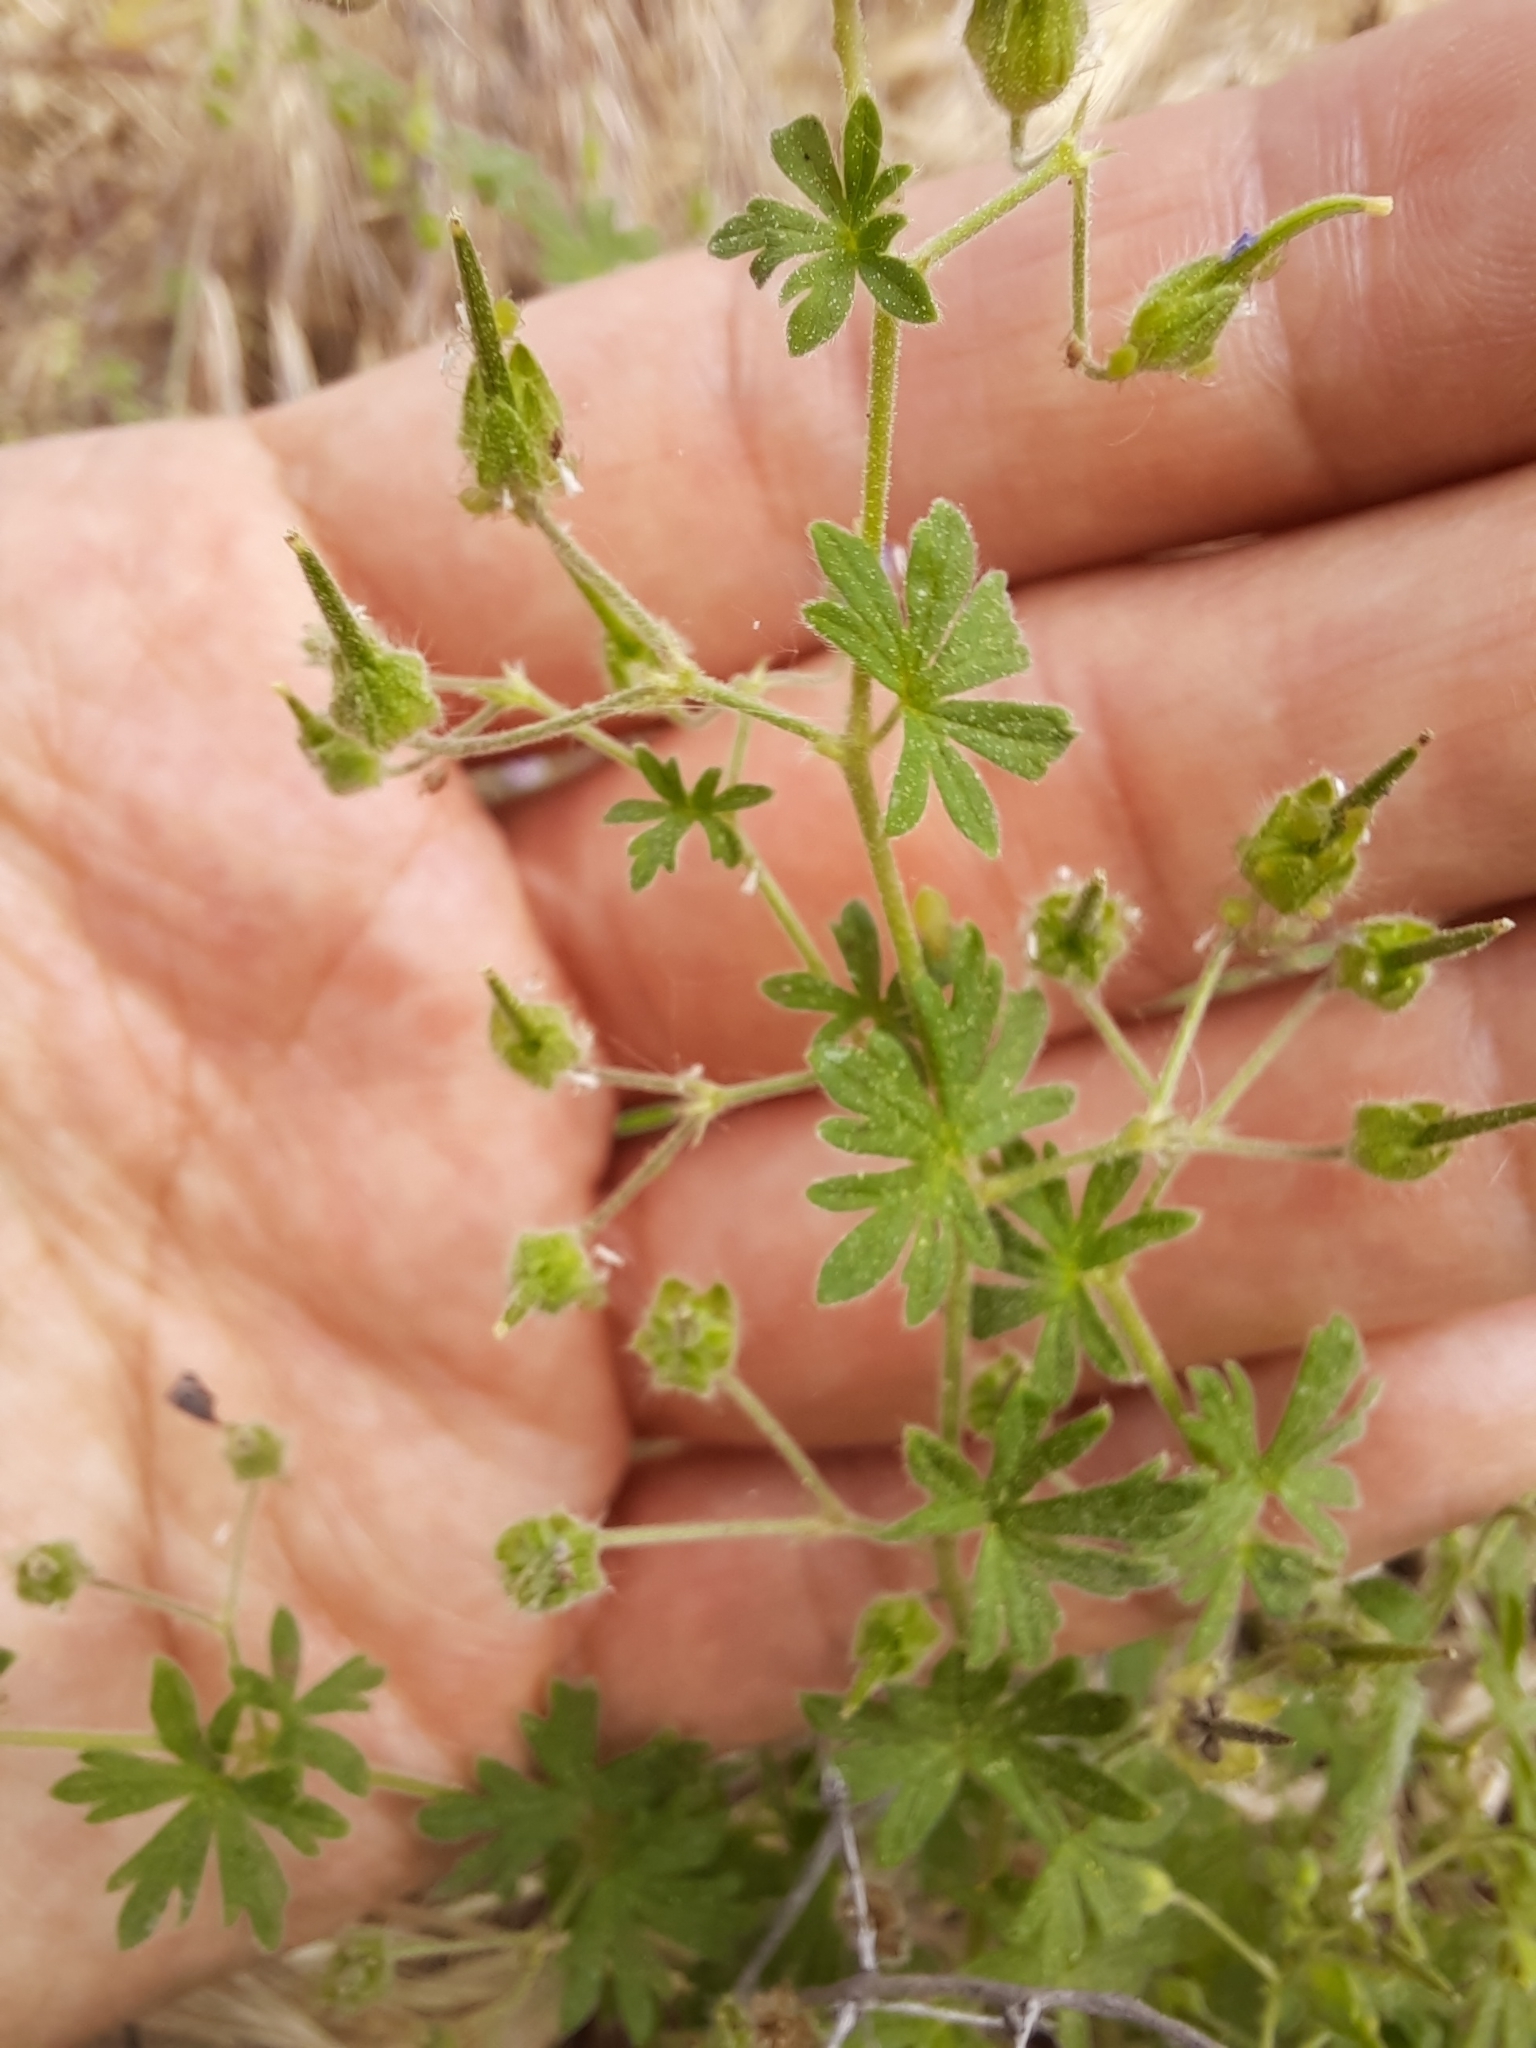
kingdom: Plantae
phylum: Tracheophyta
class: Magnoliopsida
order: Geraniales
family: Geraniaceae
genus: Geranium
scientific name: Geranium pusillum
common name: Small geranium
